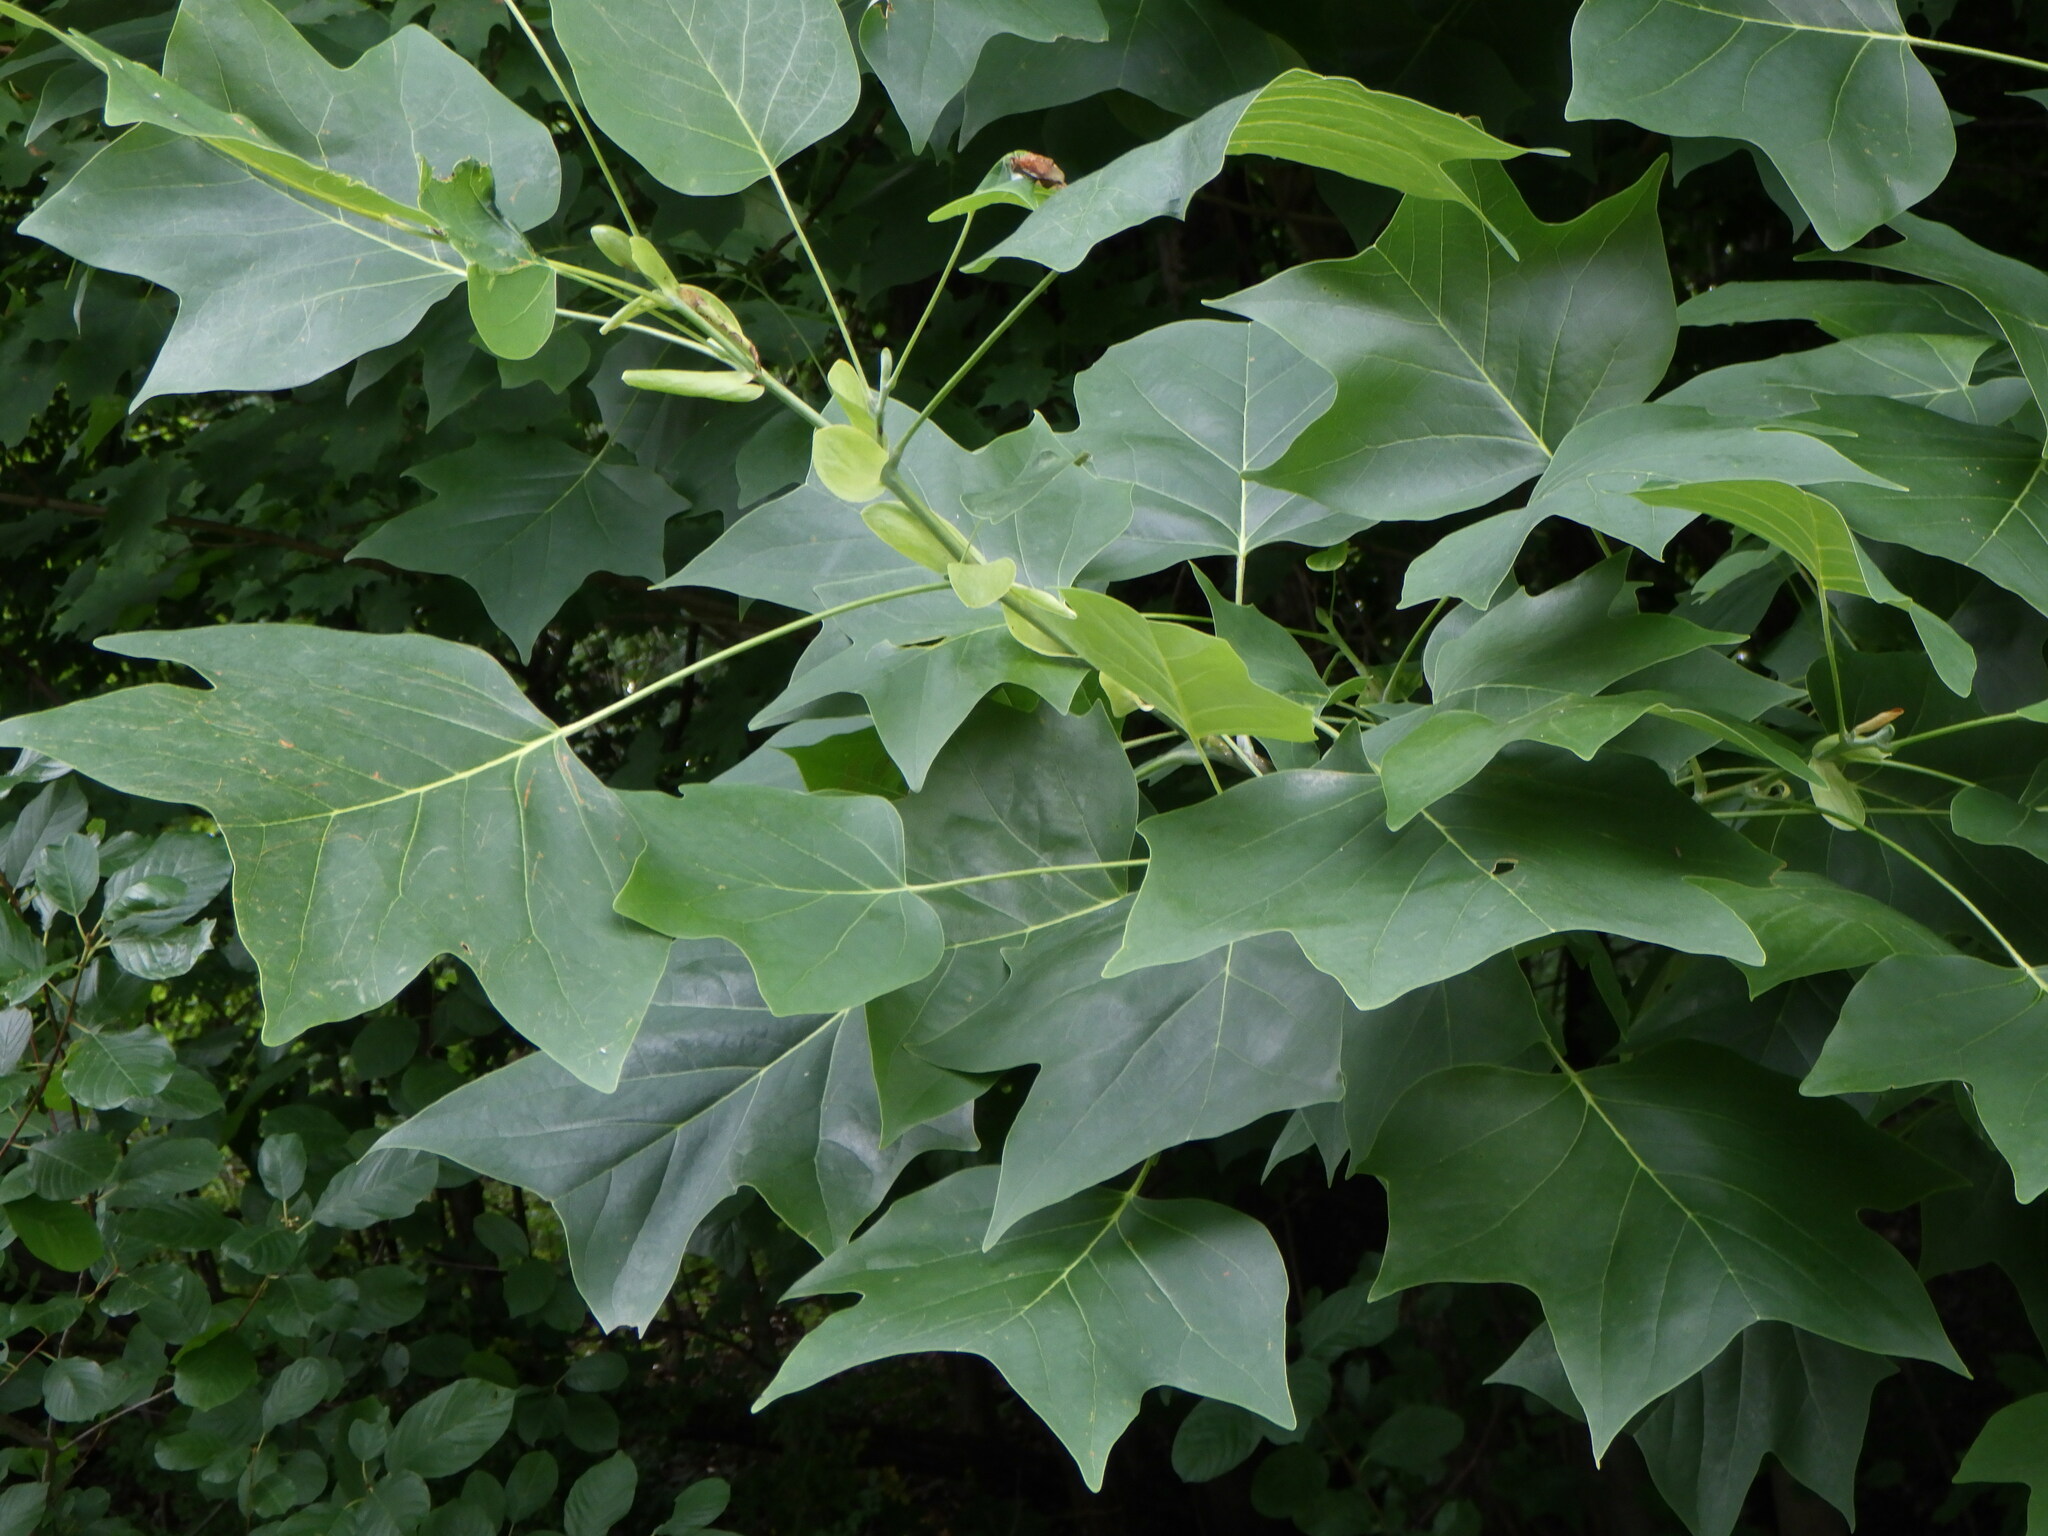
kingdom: Plantae
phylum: Tracheophyta
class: Magnoliopsida
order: Magnoliales
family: Magnoliaceae
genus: Liriodendron
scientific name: Liriodendron tulipifera
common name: Tulip tree
